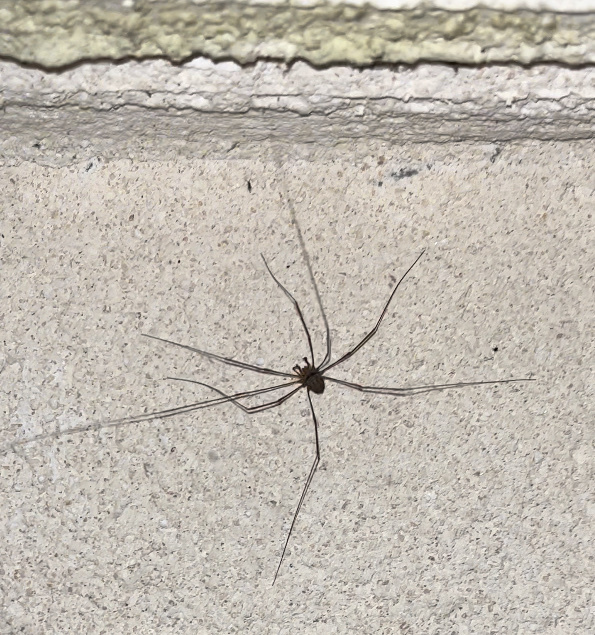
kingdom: Animalia
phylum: Arthropoda
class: Arachnida
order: Opiliones
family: Phalangiidae
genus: Dicranopalpus
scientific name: Dicranopalpus ramosus
